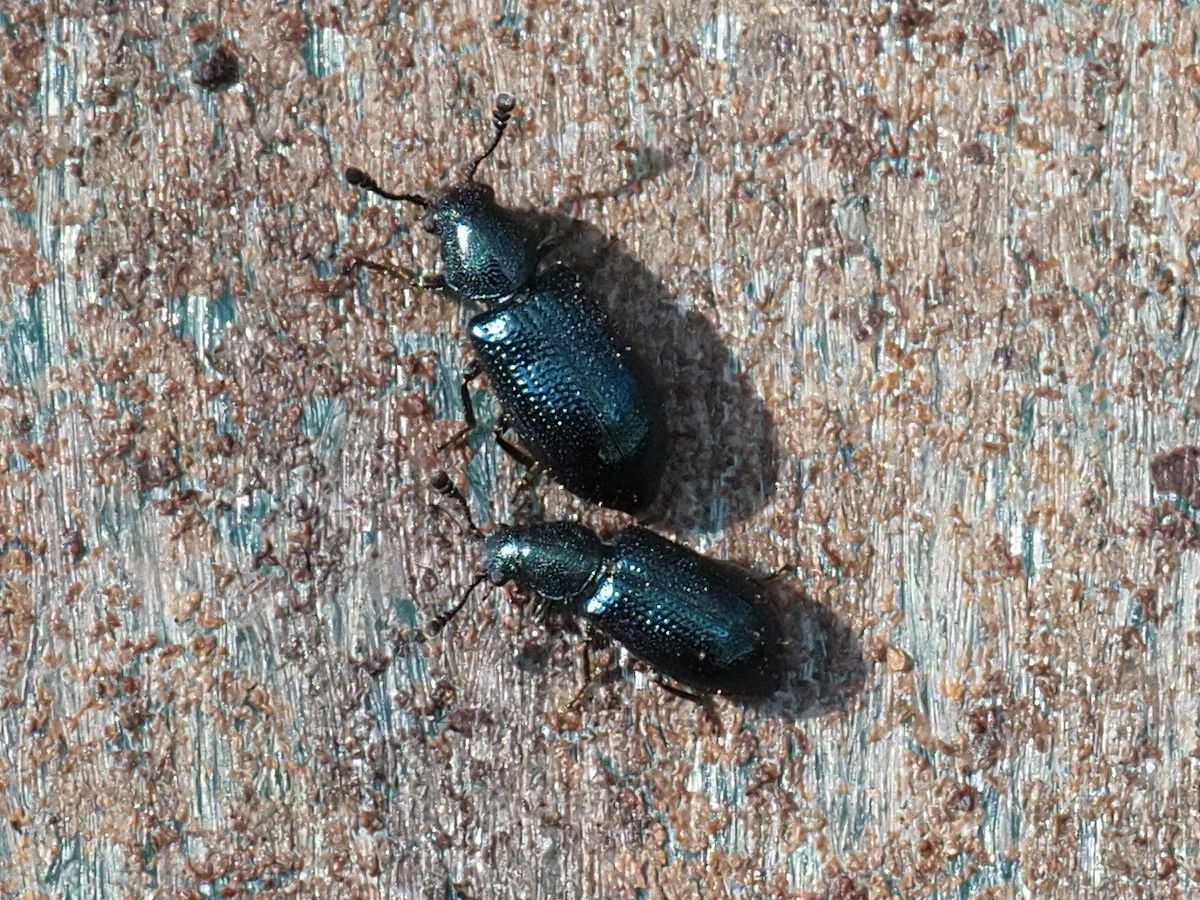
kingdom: Animalia
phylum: Arthropoda
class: Insecta
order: Coleoptera
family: Cleridae
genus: Necrobia
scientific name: Necrobia violacea
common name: Violet checkered beetle
